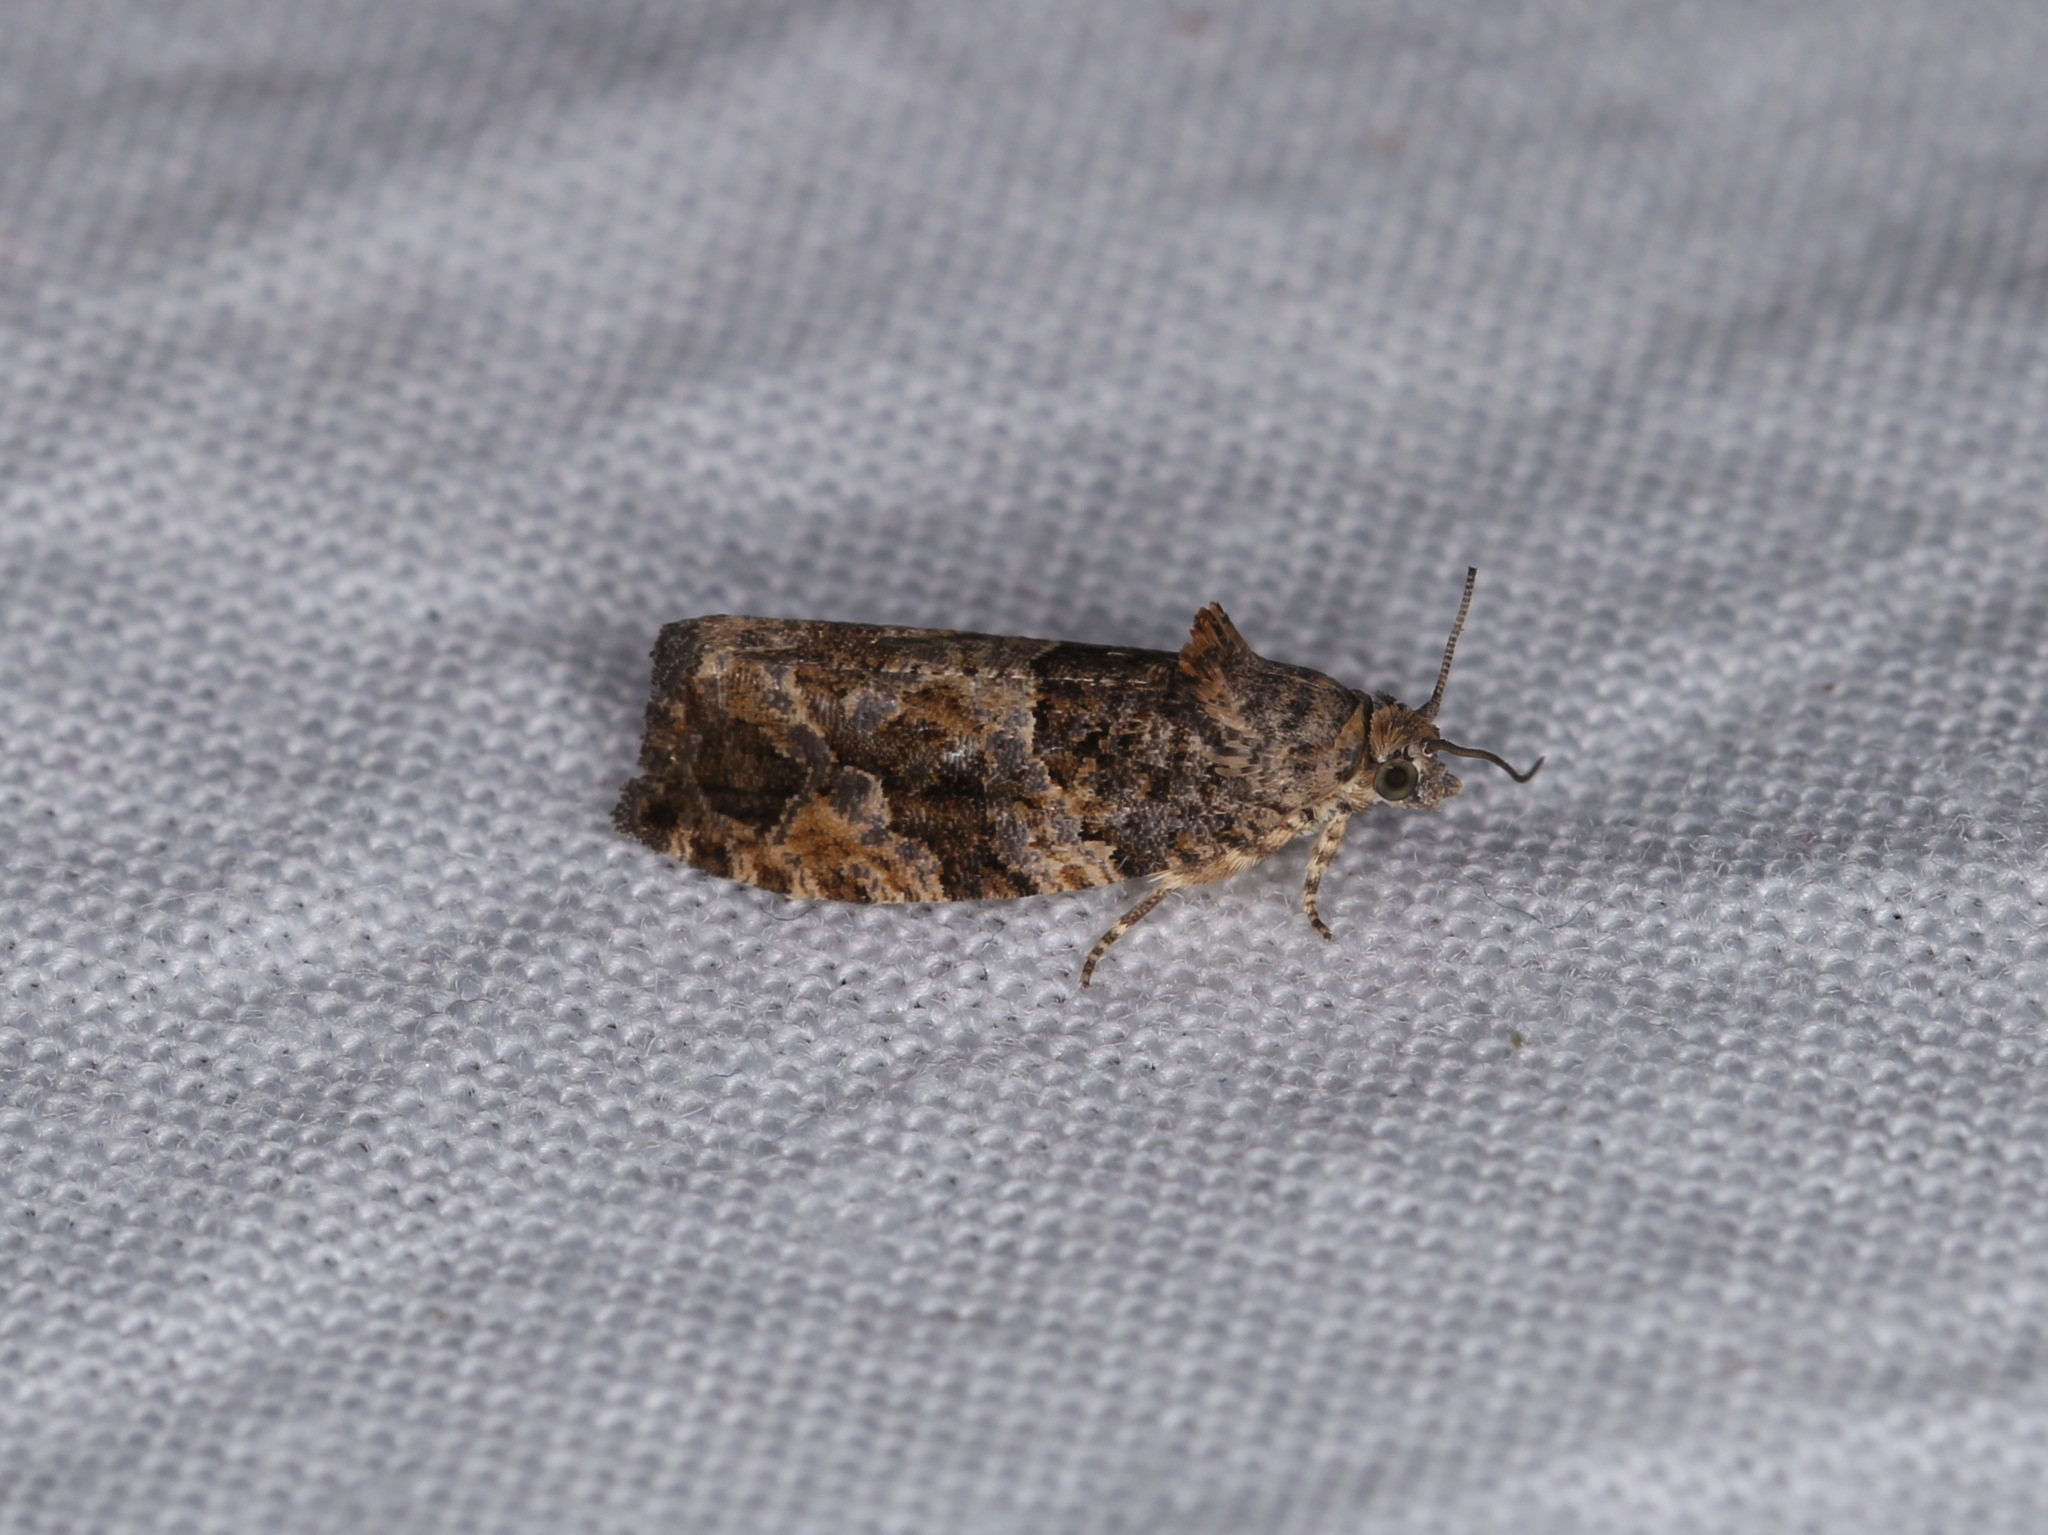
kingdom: Animalia
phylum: Arthropoda
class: Insecta
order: Lepidoptera
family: Tortricidae
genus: Eudemis
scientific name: Eudemis profundana
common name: Diamond-back marble
